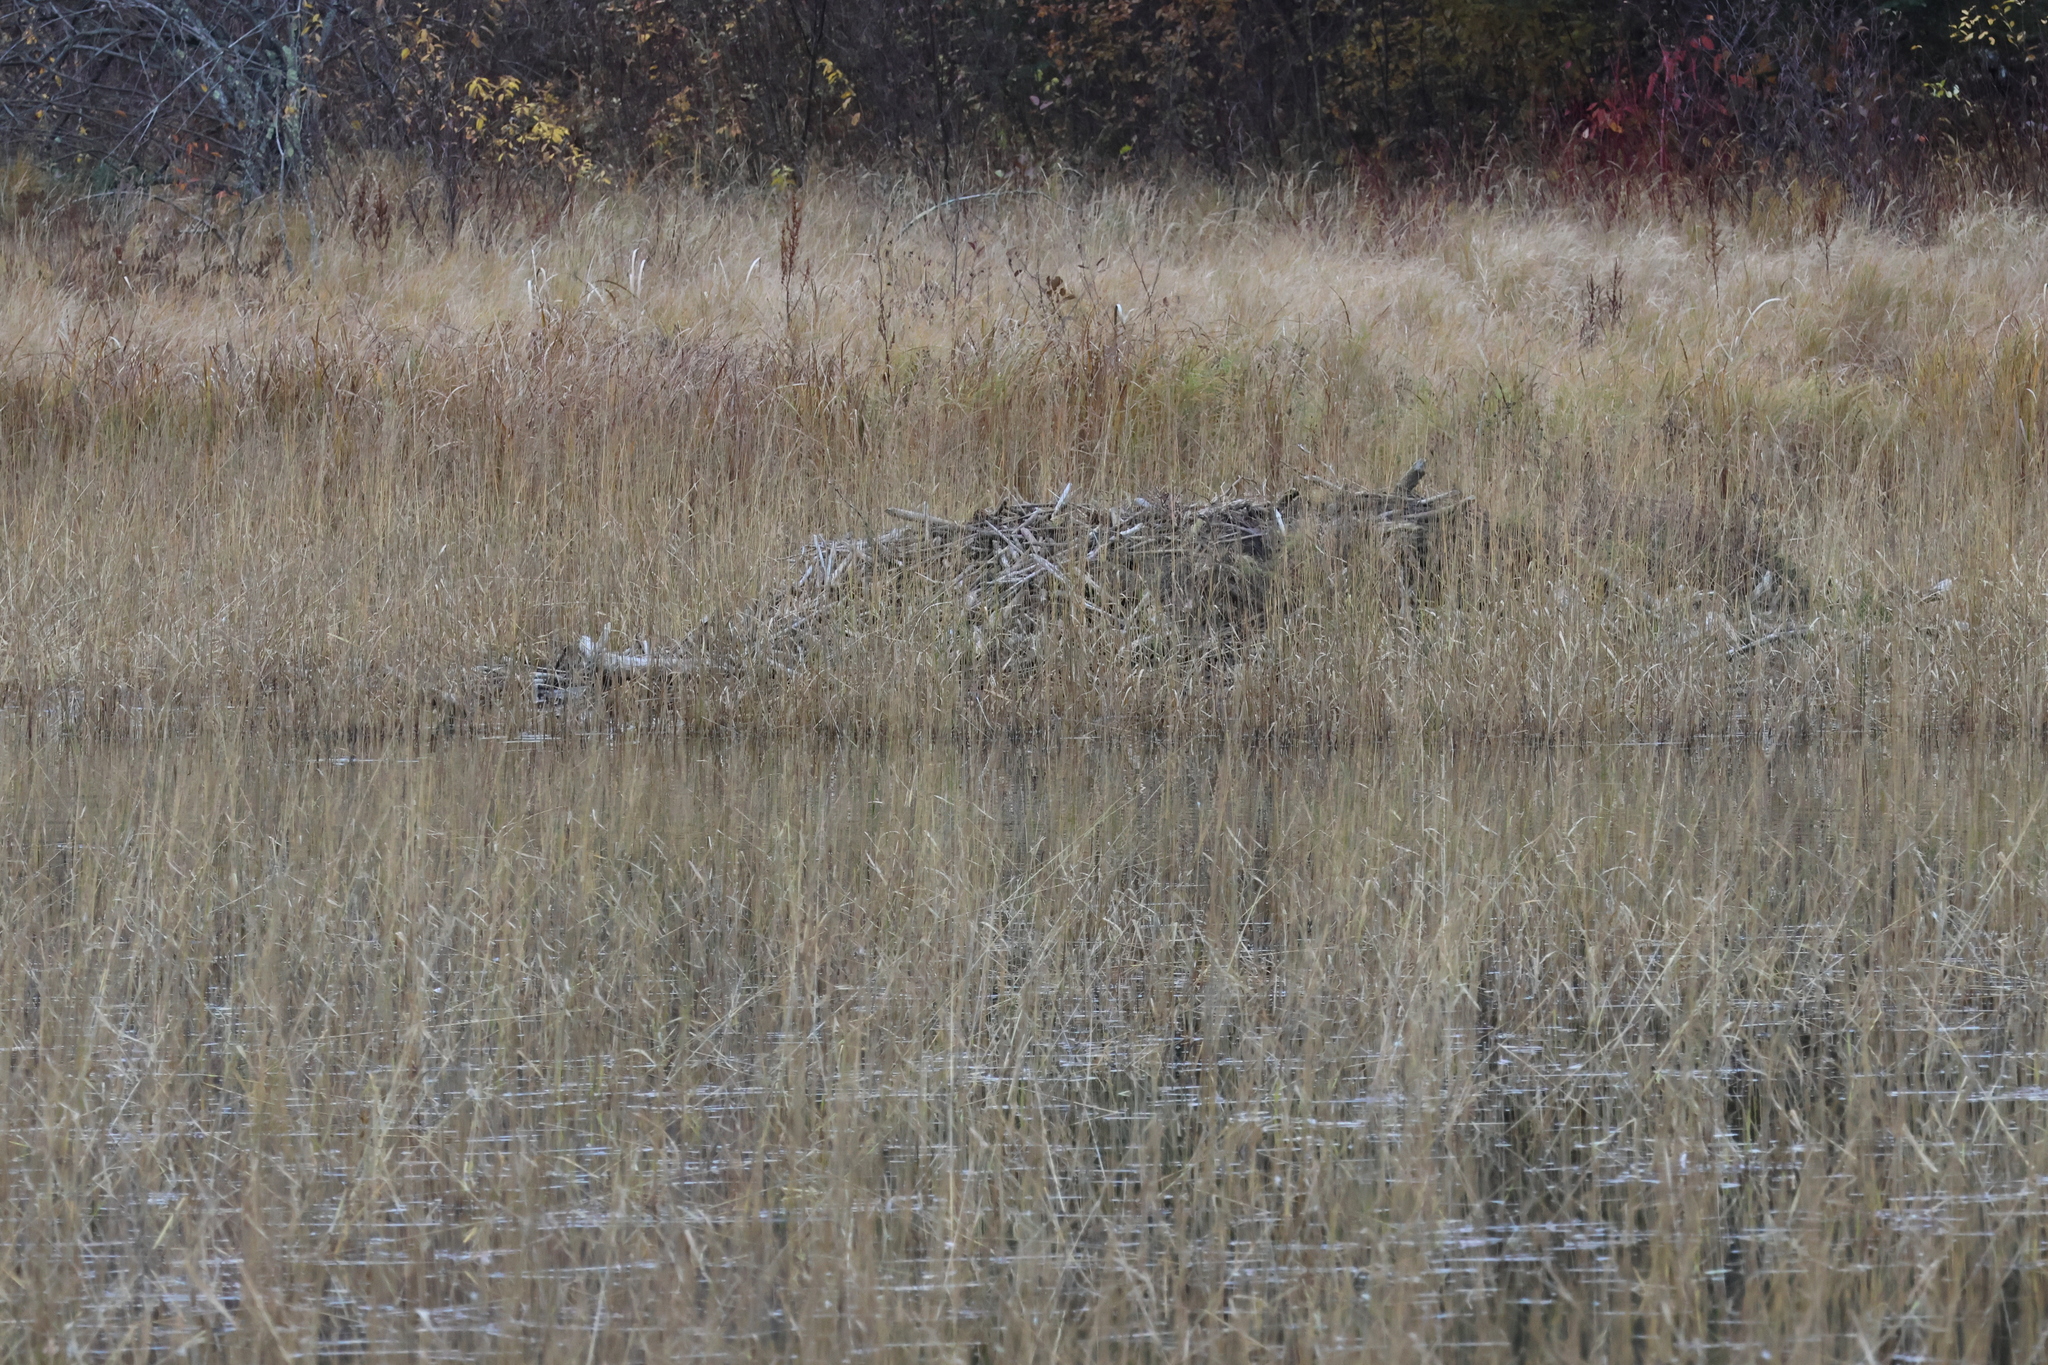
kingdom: Animalia
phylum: Chordata
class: Mammalia
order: Rodentia
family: Castoridae
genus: Castor
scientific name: Castor canadensis
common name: American beaver
